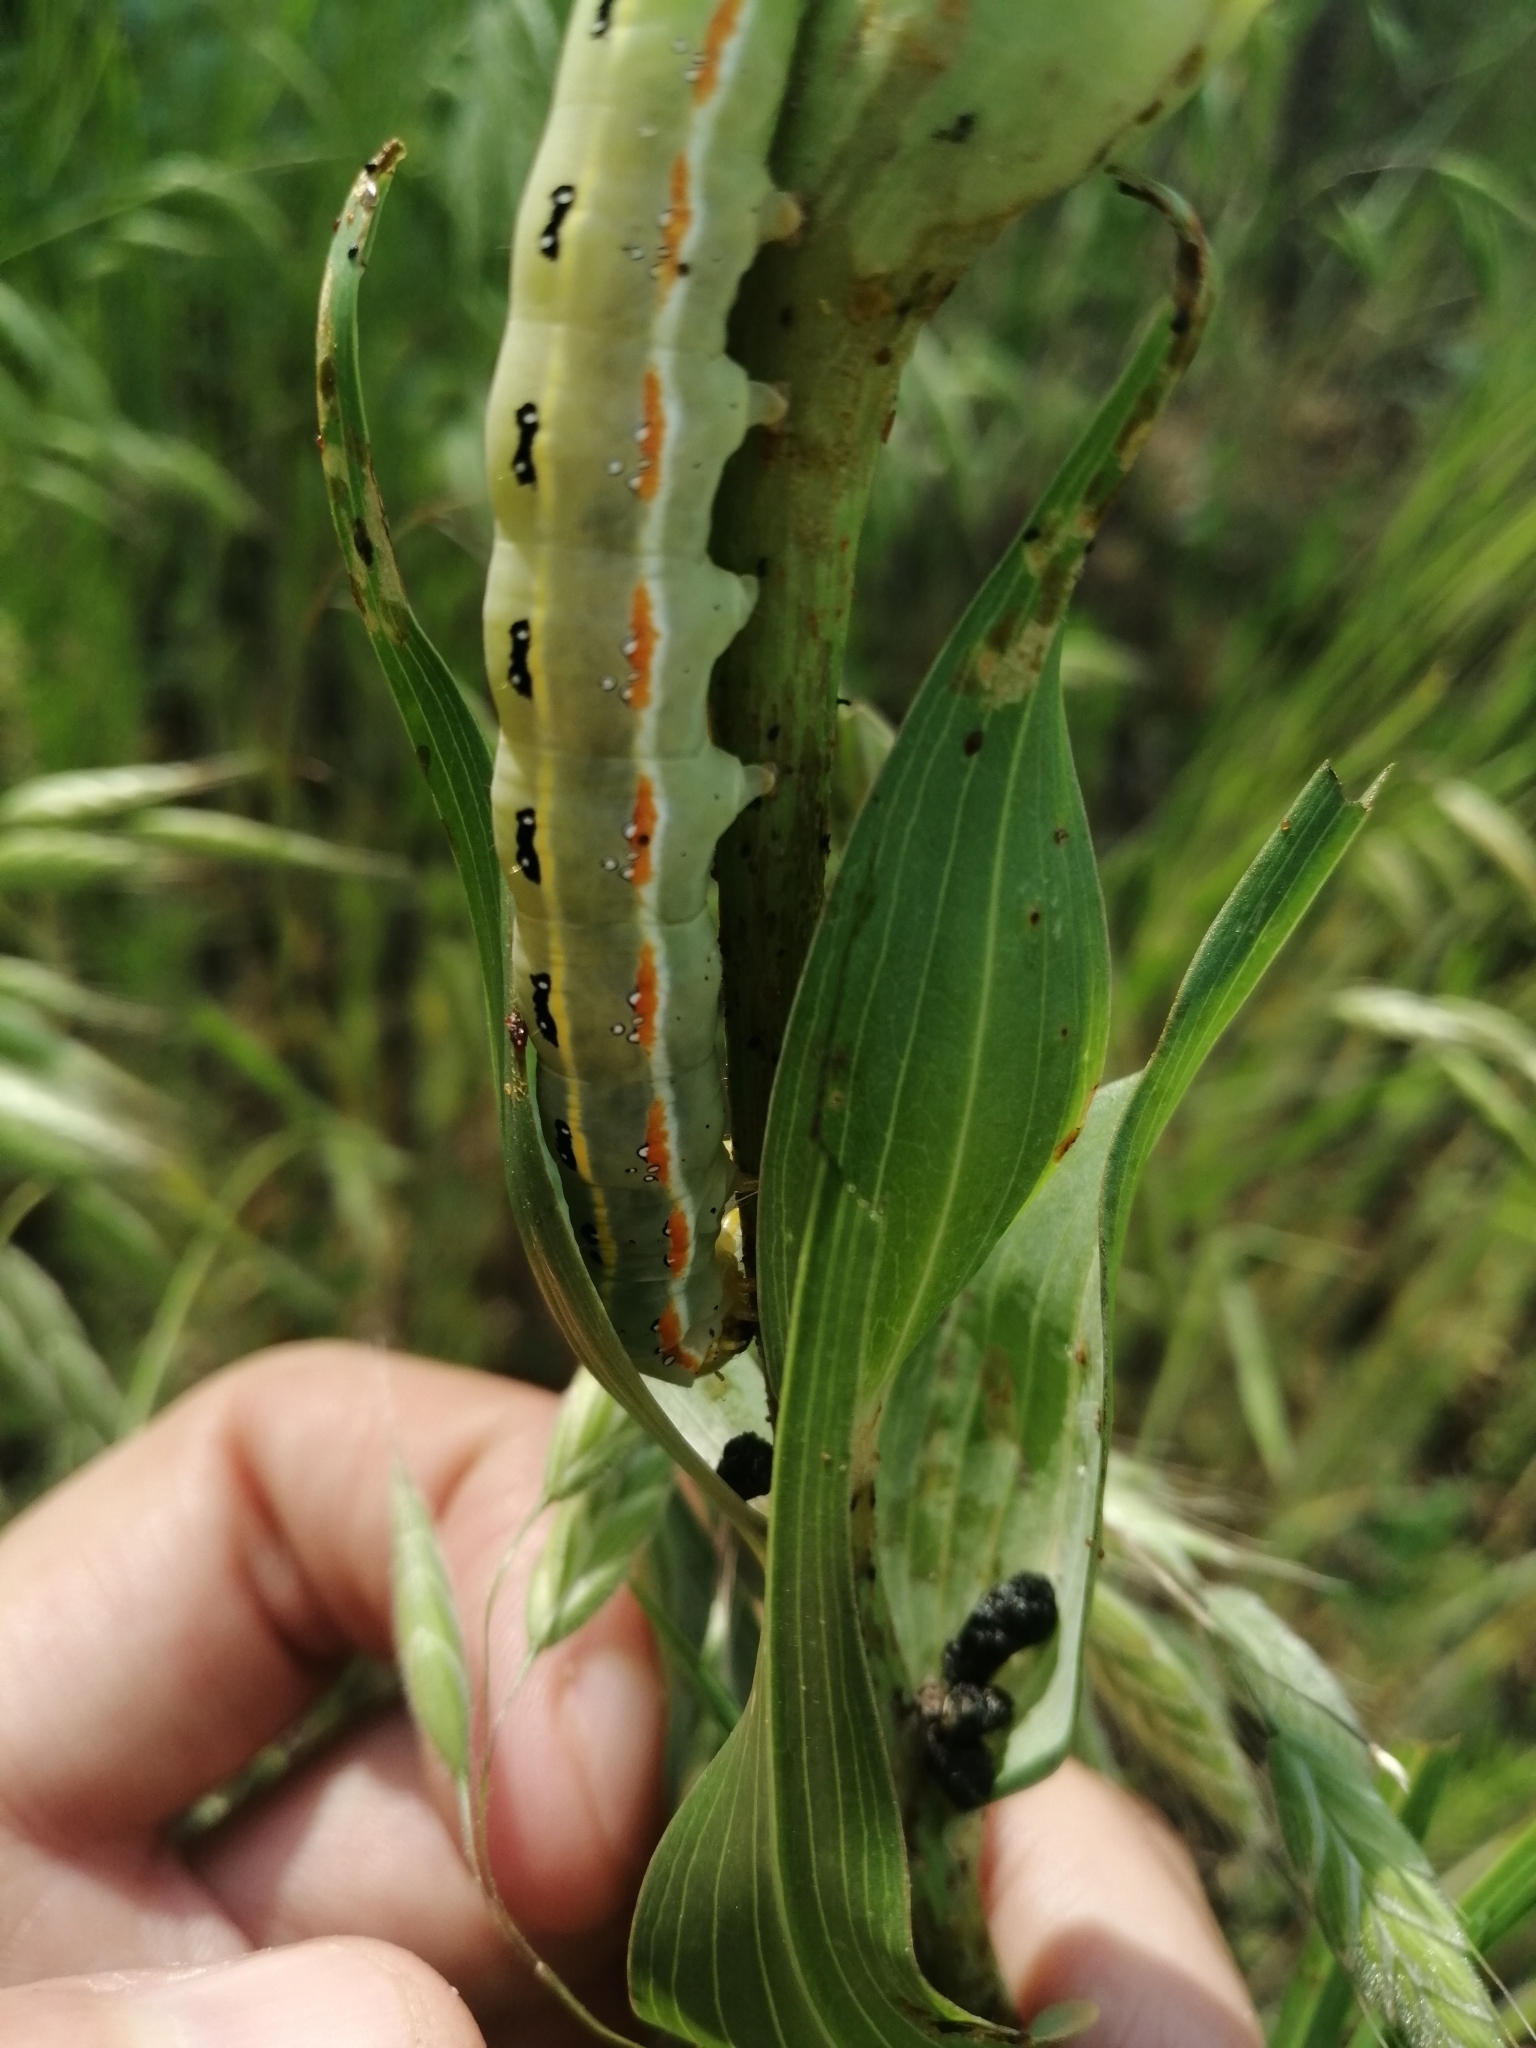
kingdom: Animalia
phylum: Arthropoda
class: Insecta
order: Lepidoptera
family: Noctuidae
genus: Xylena
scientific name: Xylena exsoleta
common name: Sword-grass
